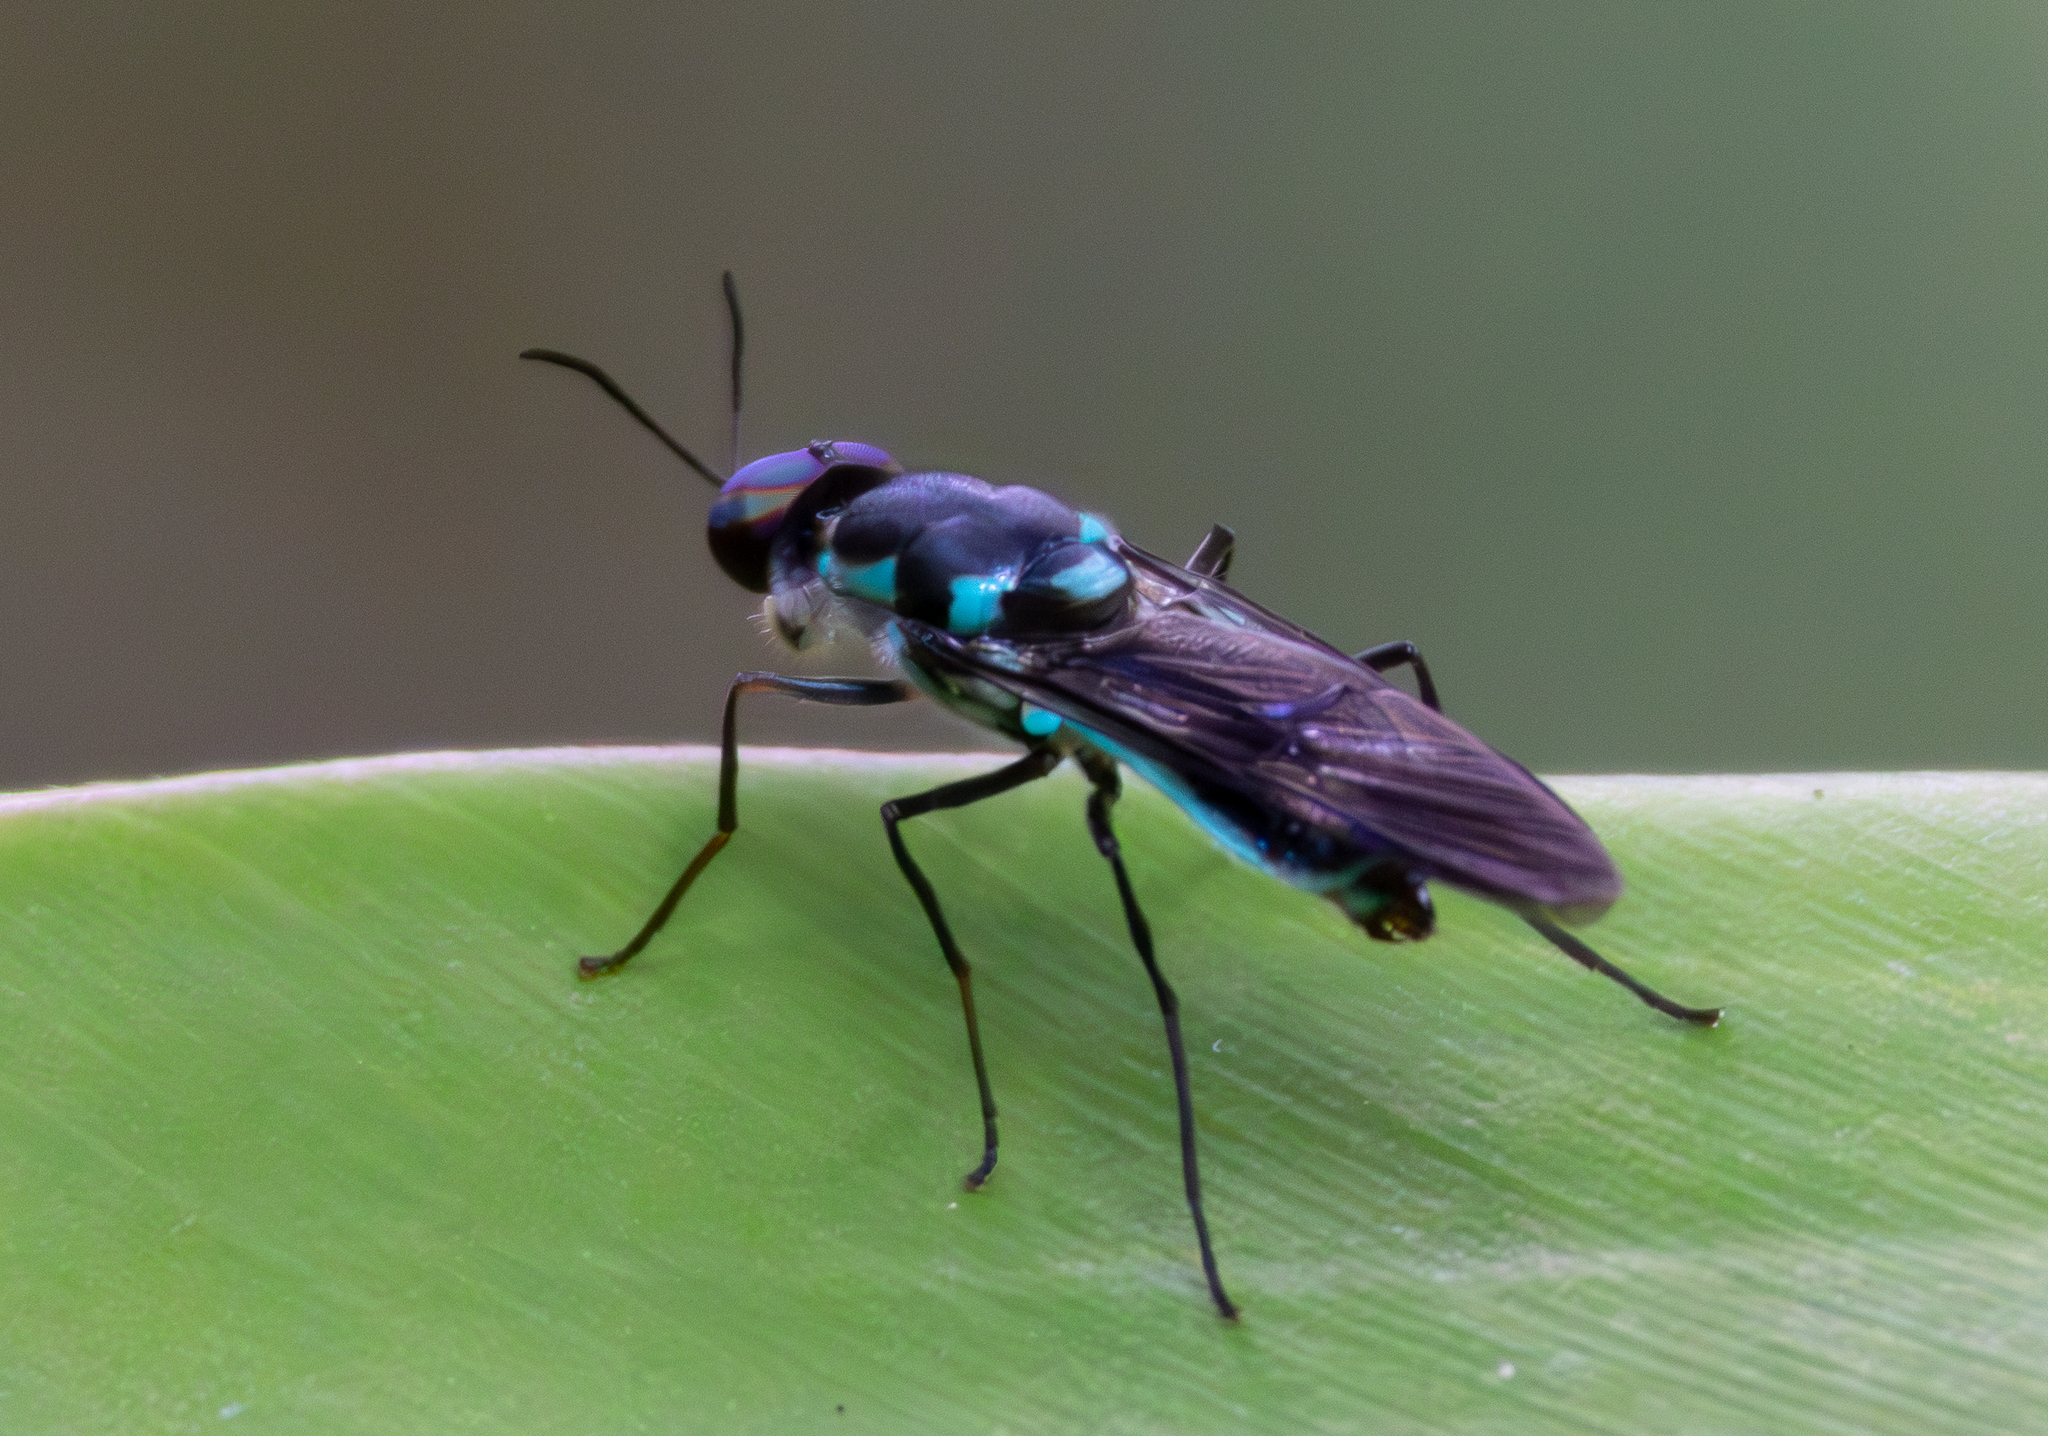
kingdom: Animalia
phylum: Arthropoda
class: Insecta
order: Diptera
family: Stratiomyidae
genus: Eudmeta
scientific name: Eudmeta marginata
